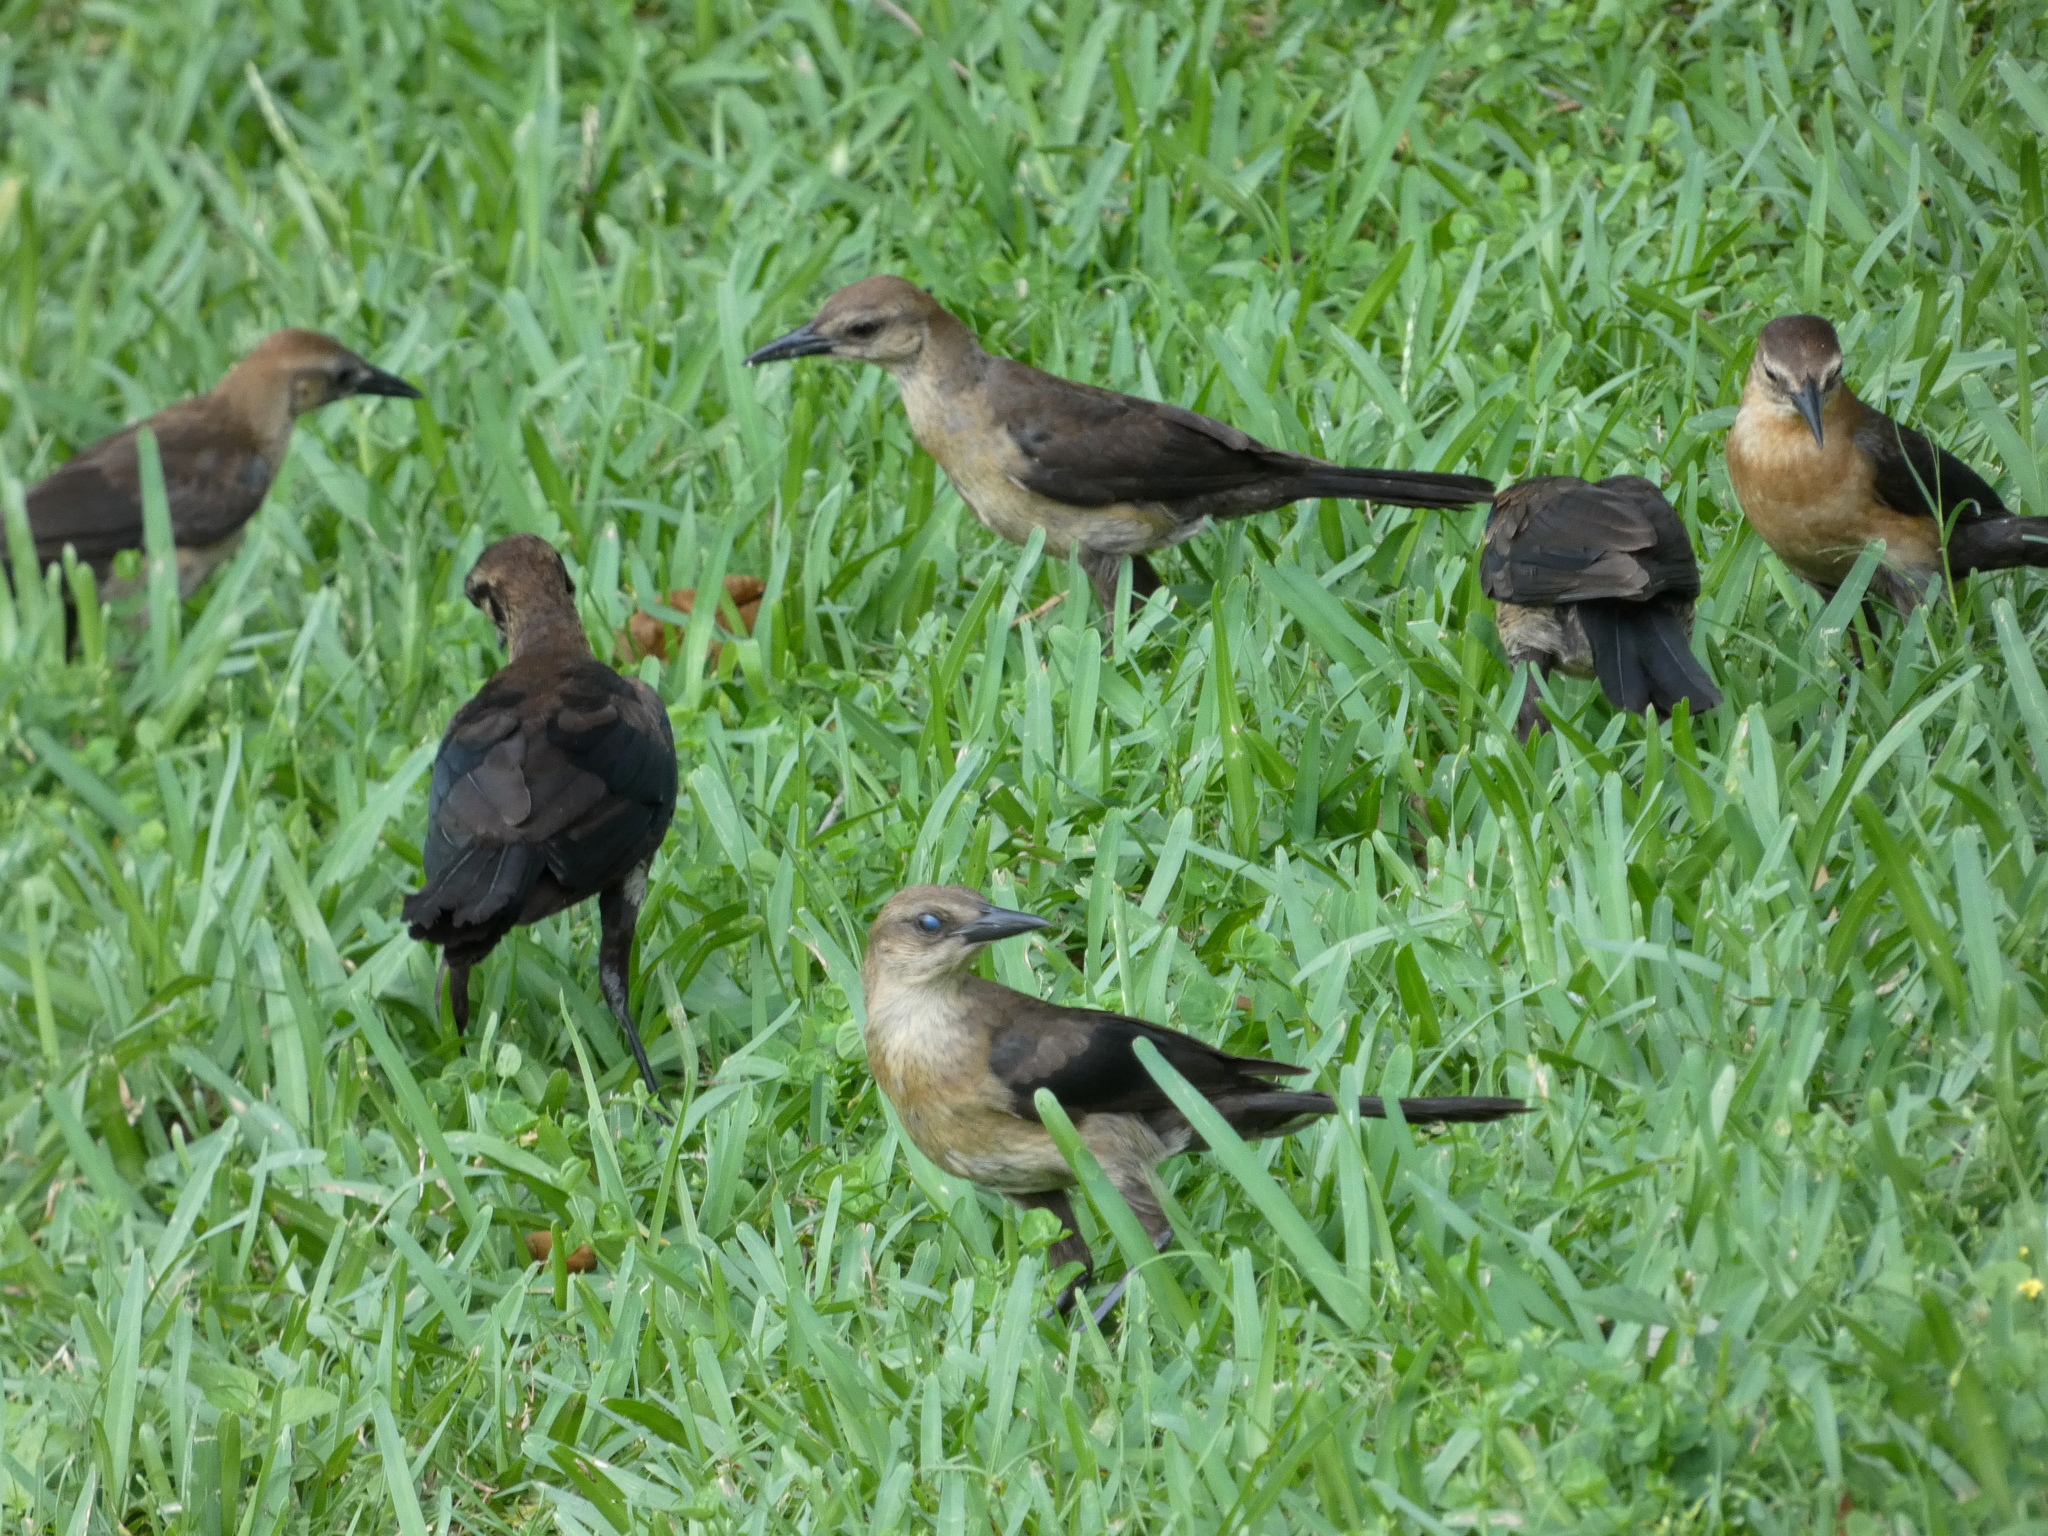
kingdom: Animalia
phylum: Chordata
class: Aves
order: Passeriformes
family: Icteridae
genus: Quiscalus
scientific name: Quiscalus major
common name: Boat-tailed grackle
